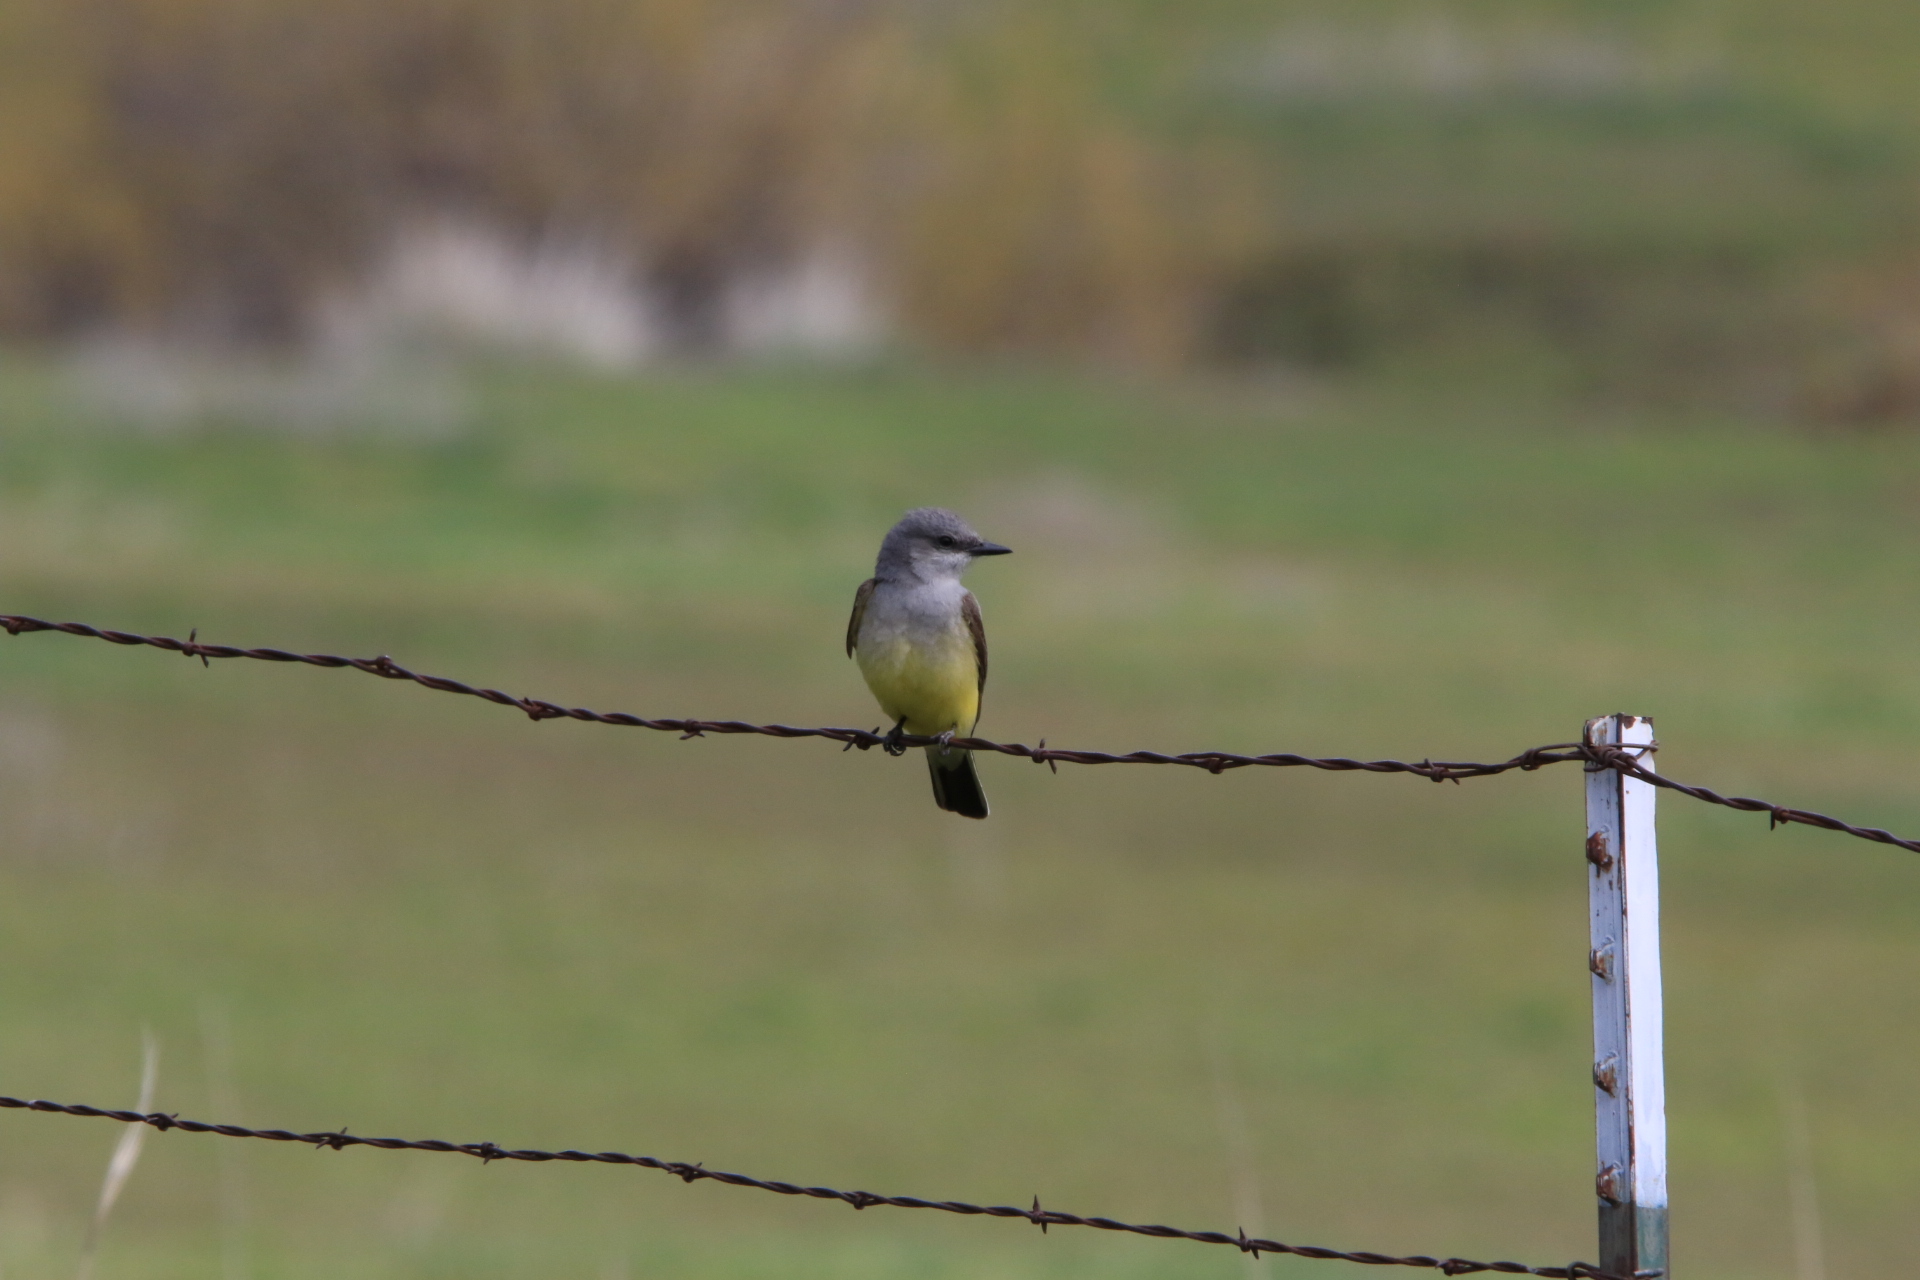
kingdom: Animalia
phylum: Chordata
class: Aves
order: Passeriformes
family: Tyrannidae
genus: Tyrannus
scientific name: Tyrannus verticalis
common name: Western kingbird
